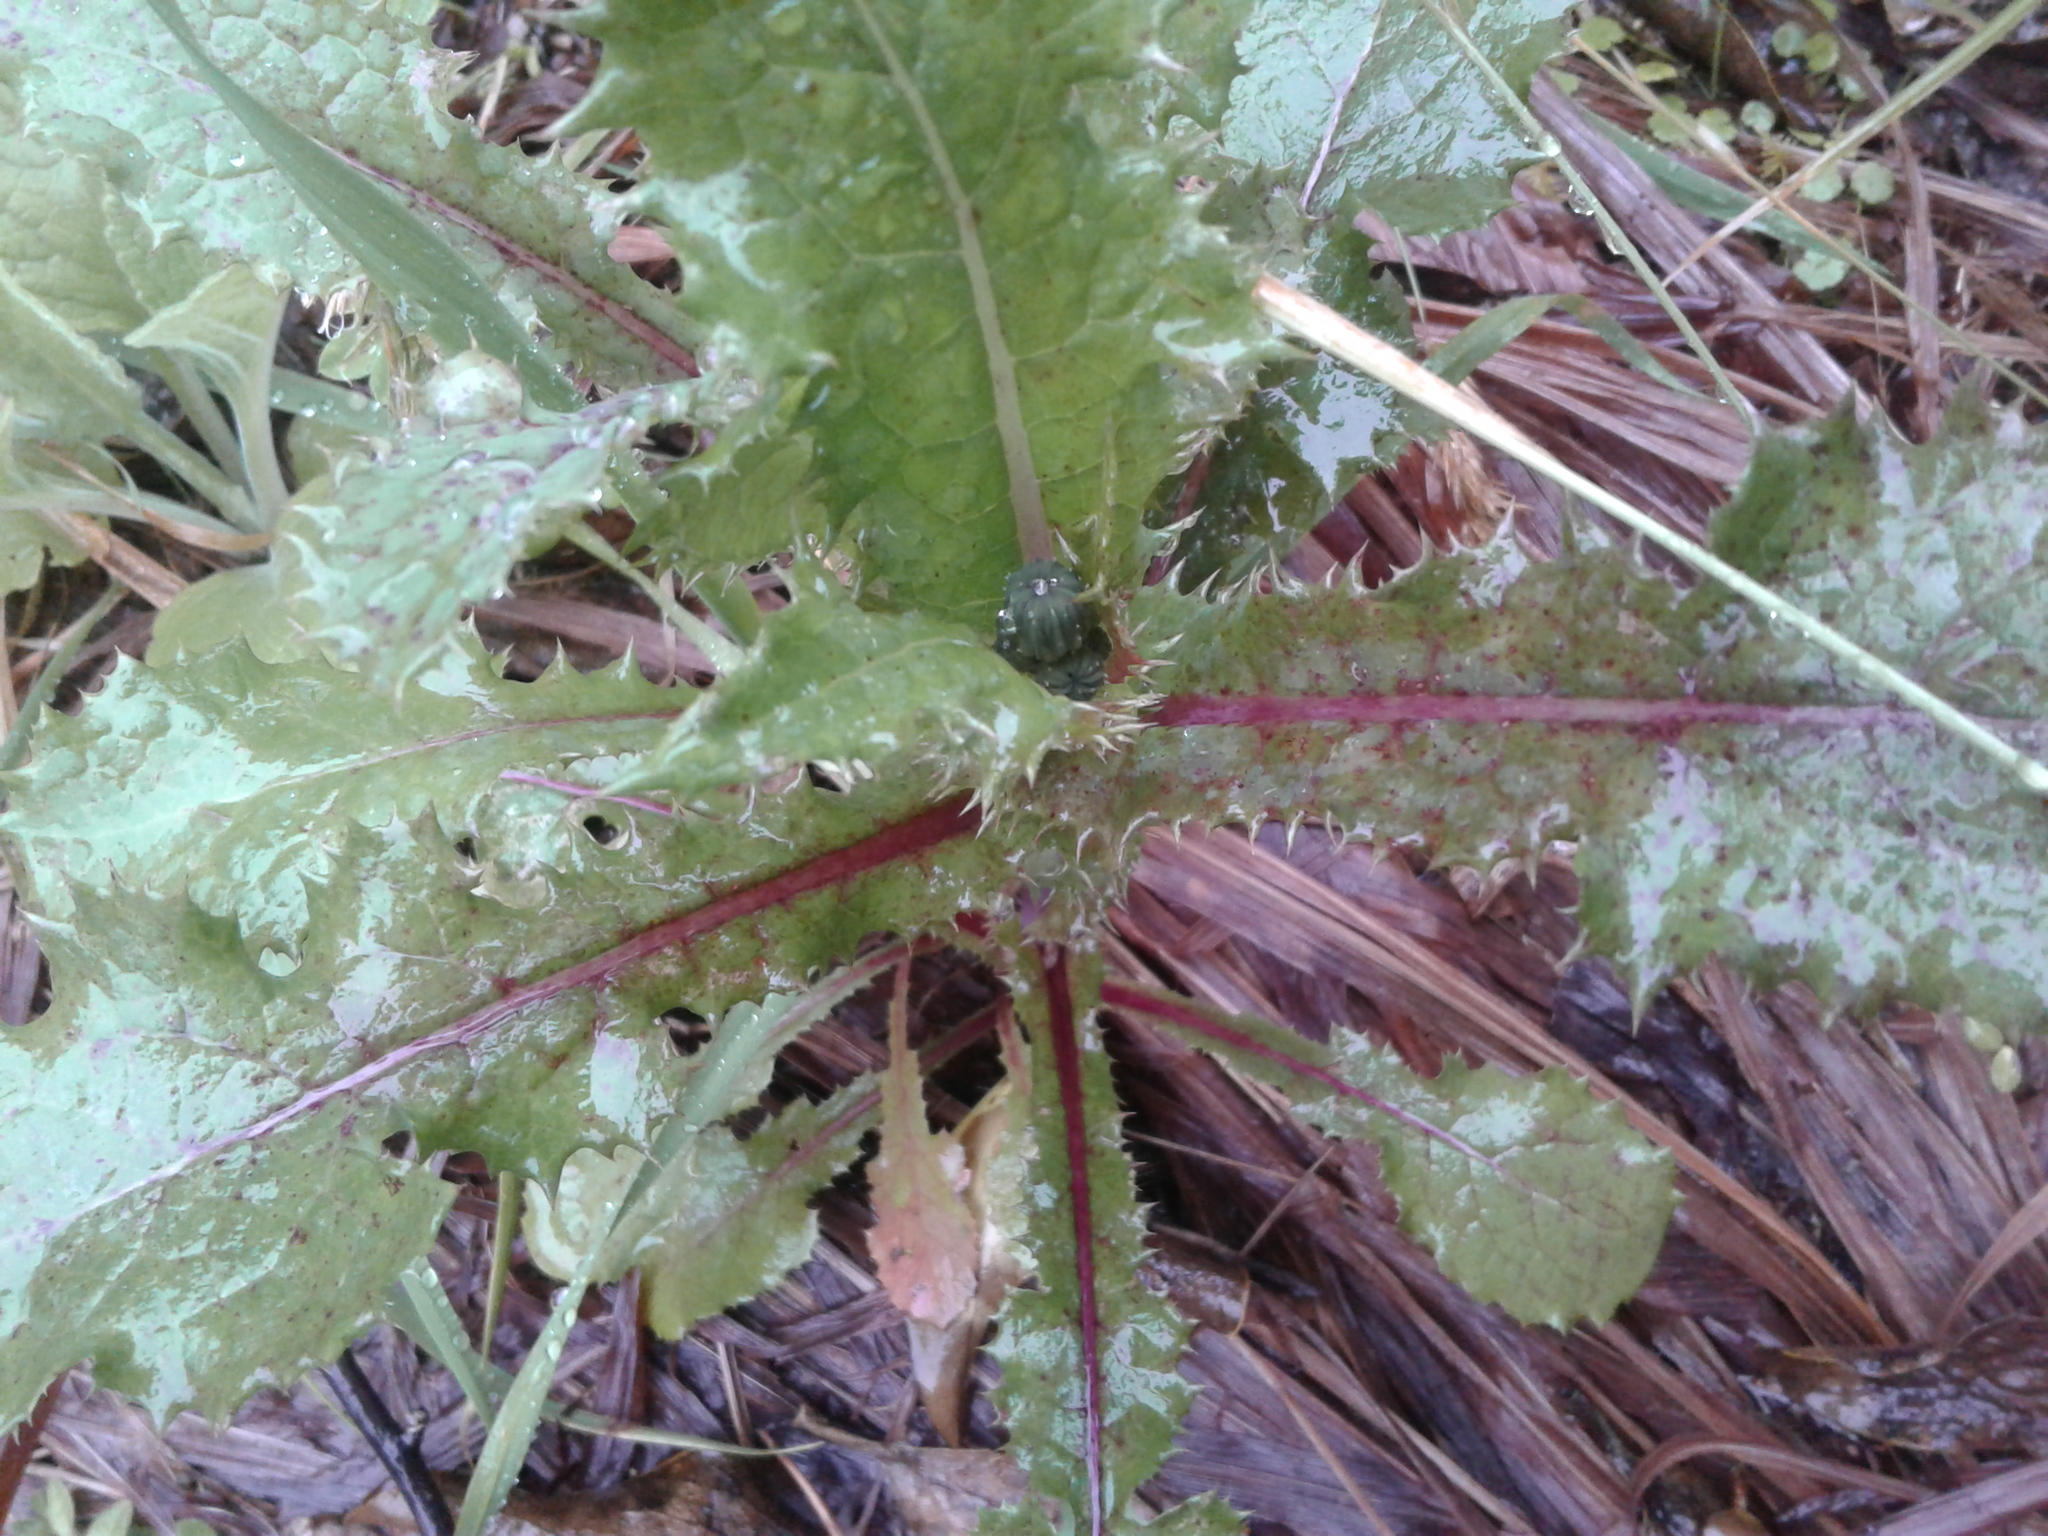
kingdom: Plantae
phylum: Tracheophyta
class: Magnoliopsida
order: Asterales
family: Asteraceae
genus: Sonchus
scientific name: Sonchus
